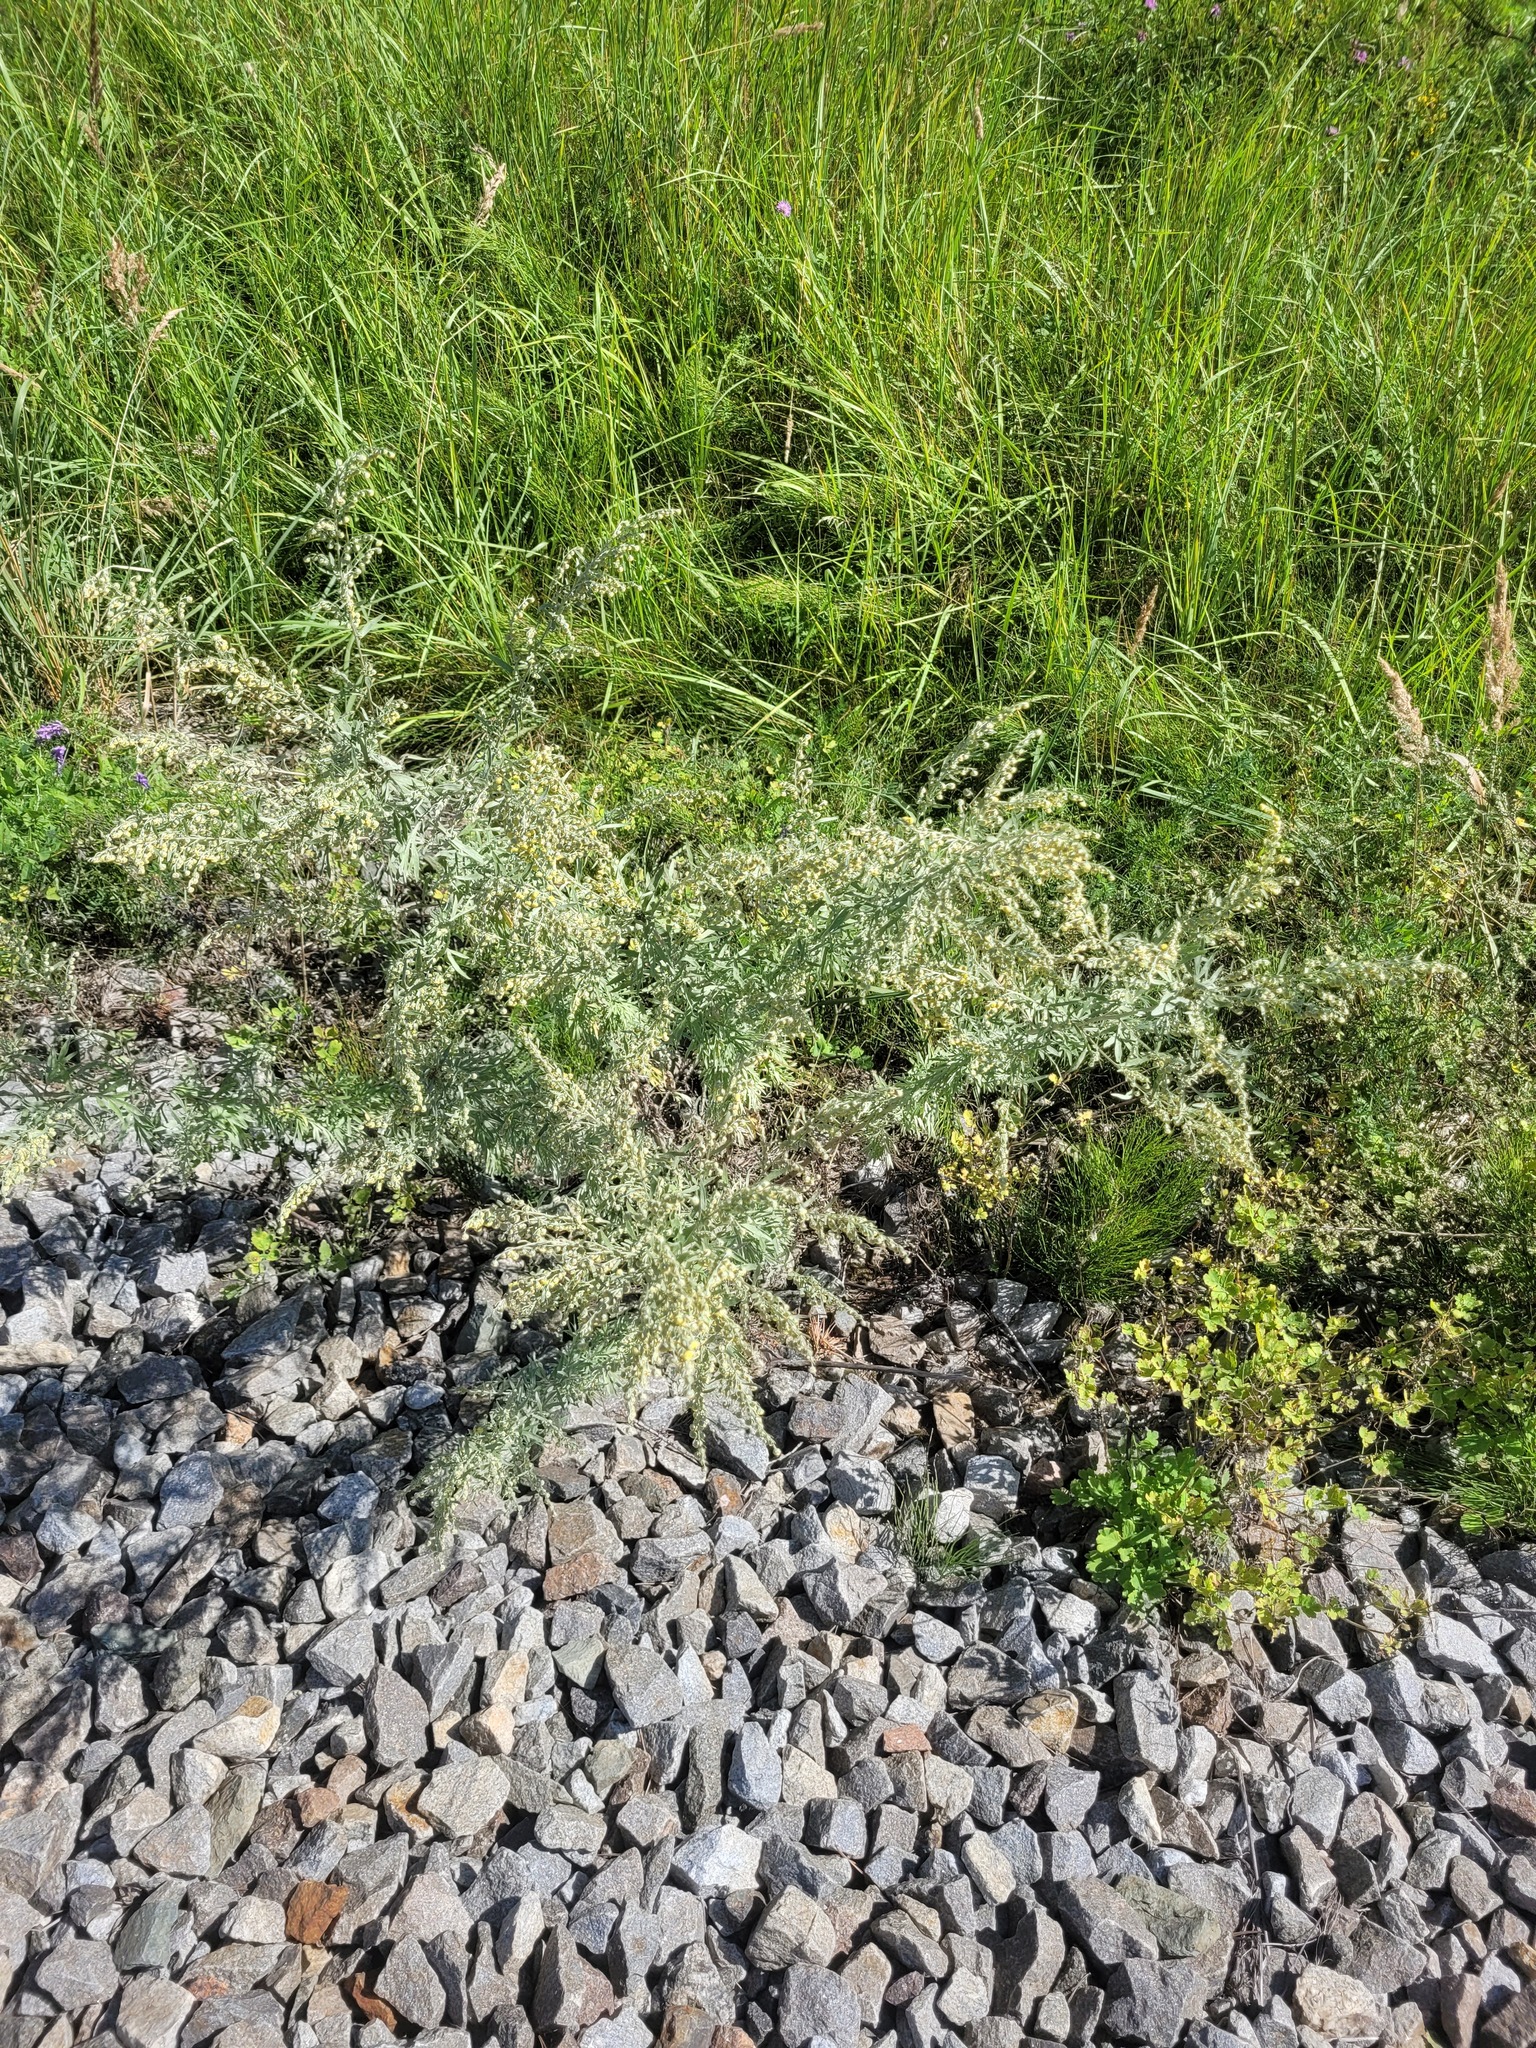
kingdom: Plantae
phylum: Tracheophyta
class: Magnoliopsida
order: Asterales
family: Asteraceae
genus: Artemisia
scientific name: Artemisia absinthium
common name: Wormwood
